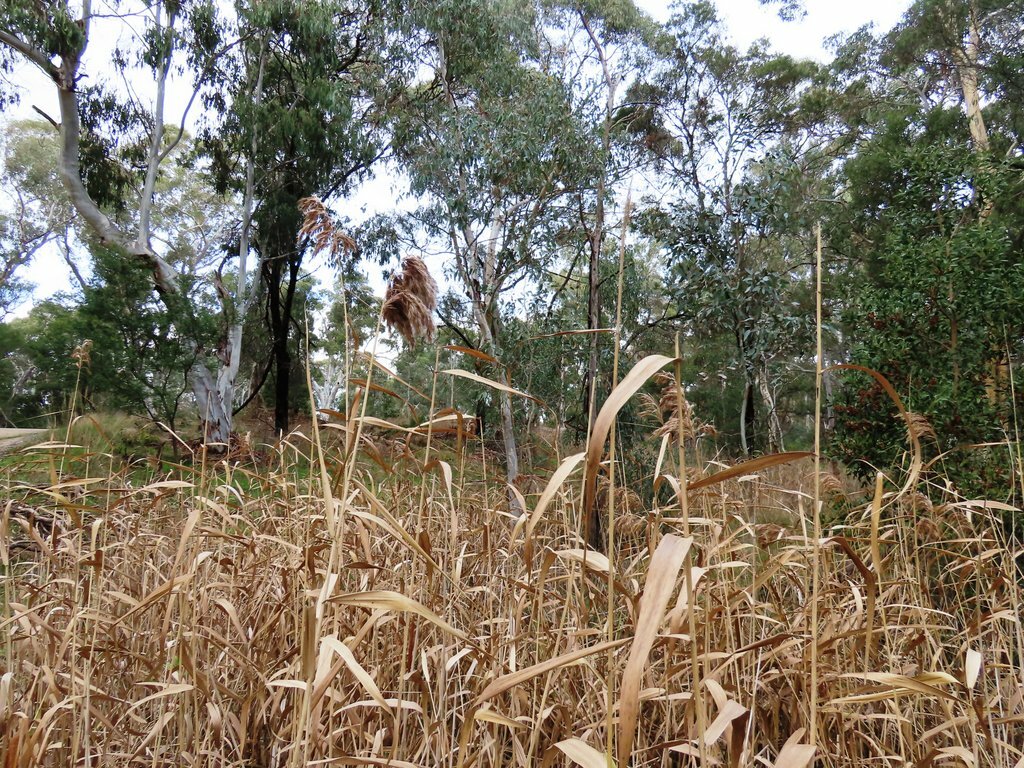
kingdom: Plantae
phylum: Tracheophyta
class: Liliopsida
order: Poales
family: Poaceae
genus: Phragmites
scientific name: Phragmites australis
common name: Common reed
